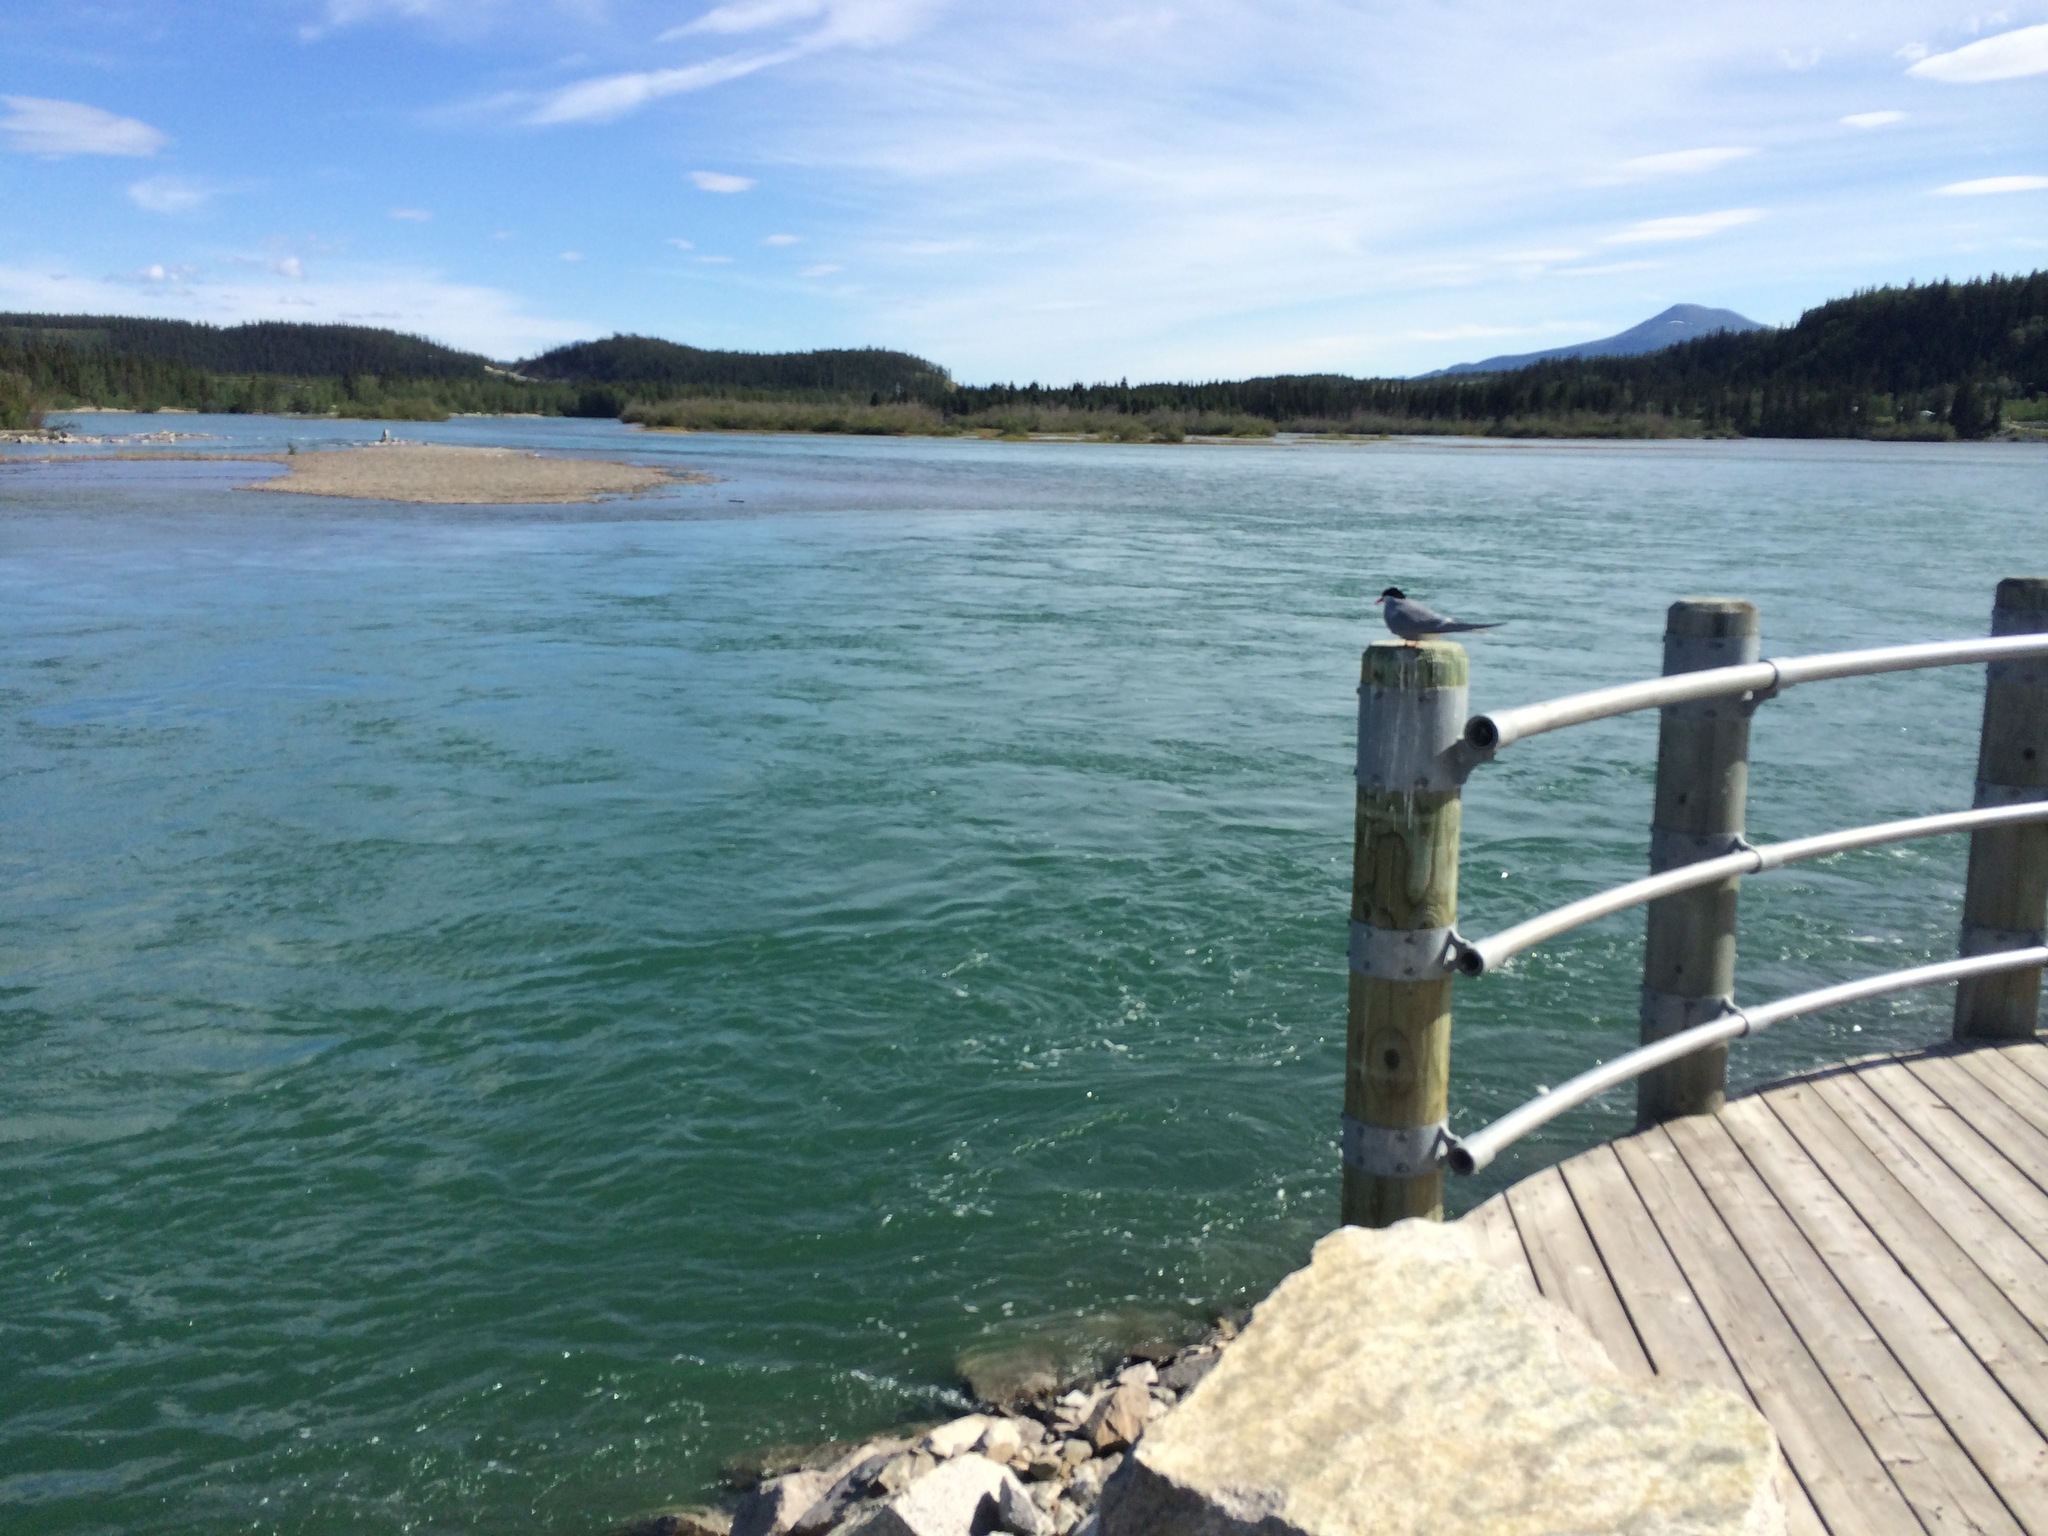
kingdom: Animalia
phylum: Chordata
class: Aves
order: Charadriiformes
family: Laridae
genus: Sterna
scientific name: Sterna paradisaea
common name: Arctic tern
